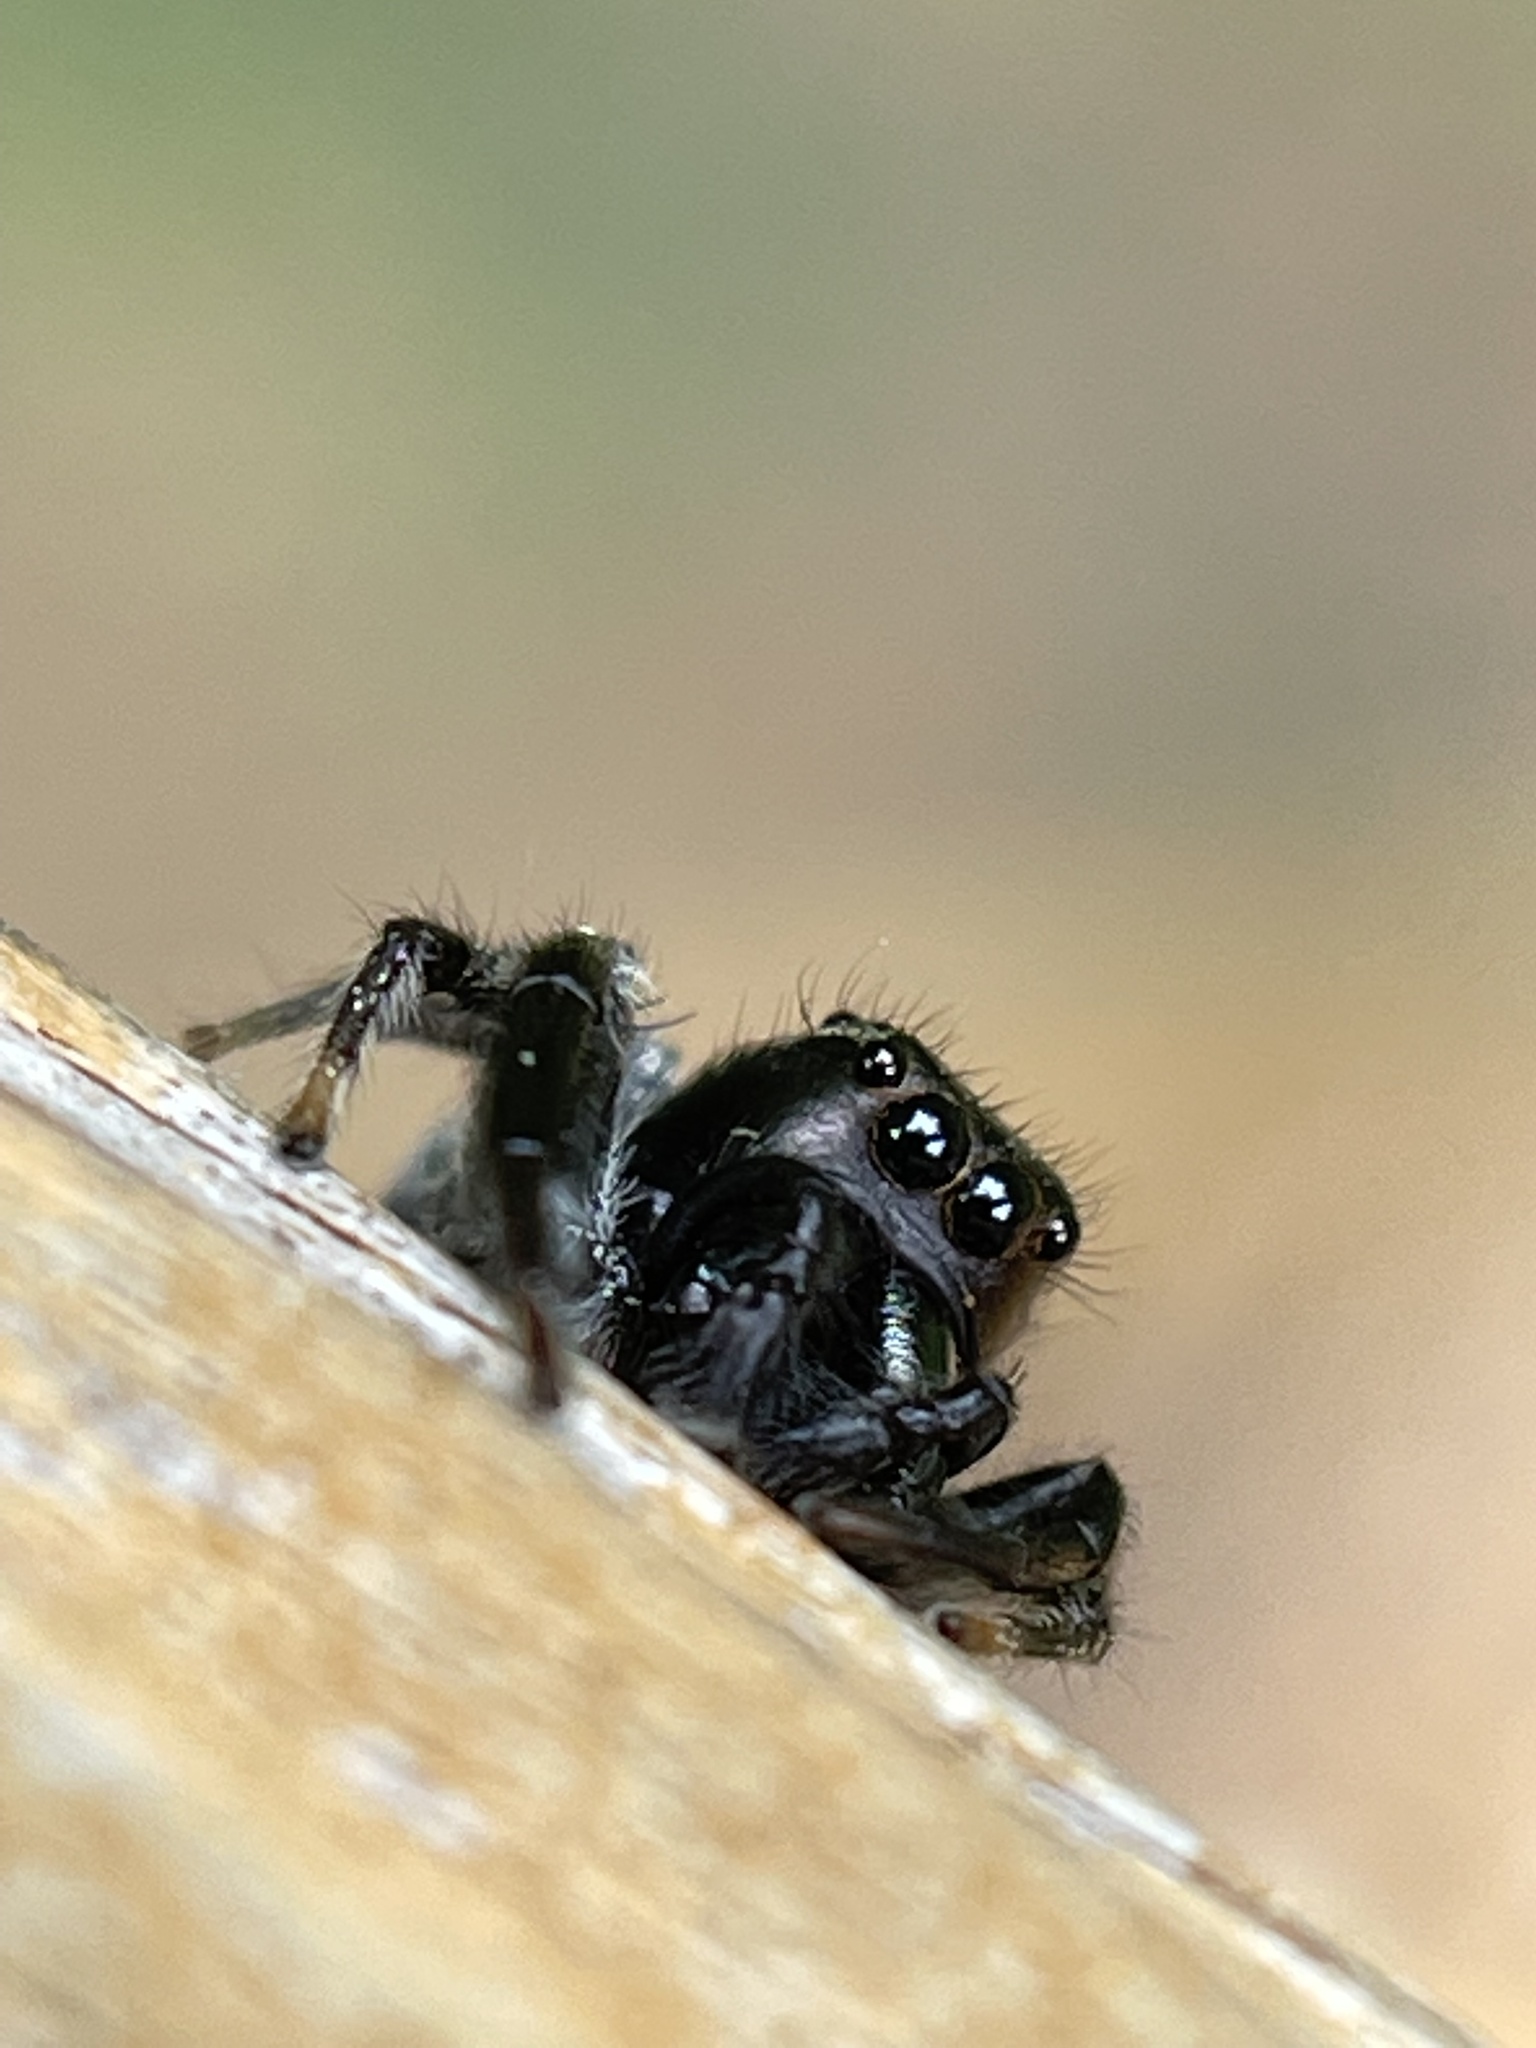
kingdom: Animalia
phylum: Arthropoda
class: Arachnida
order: Araneae
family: Salticidae
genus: Paraphidippus
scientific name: Paraphidippus aurantius
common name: Jumping spiders
